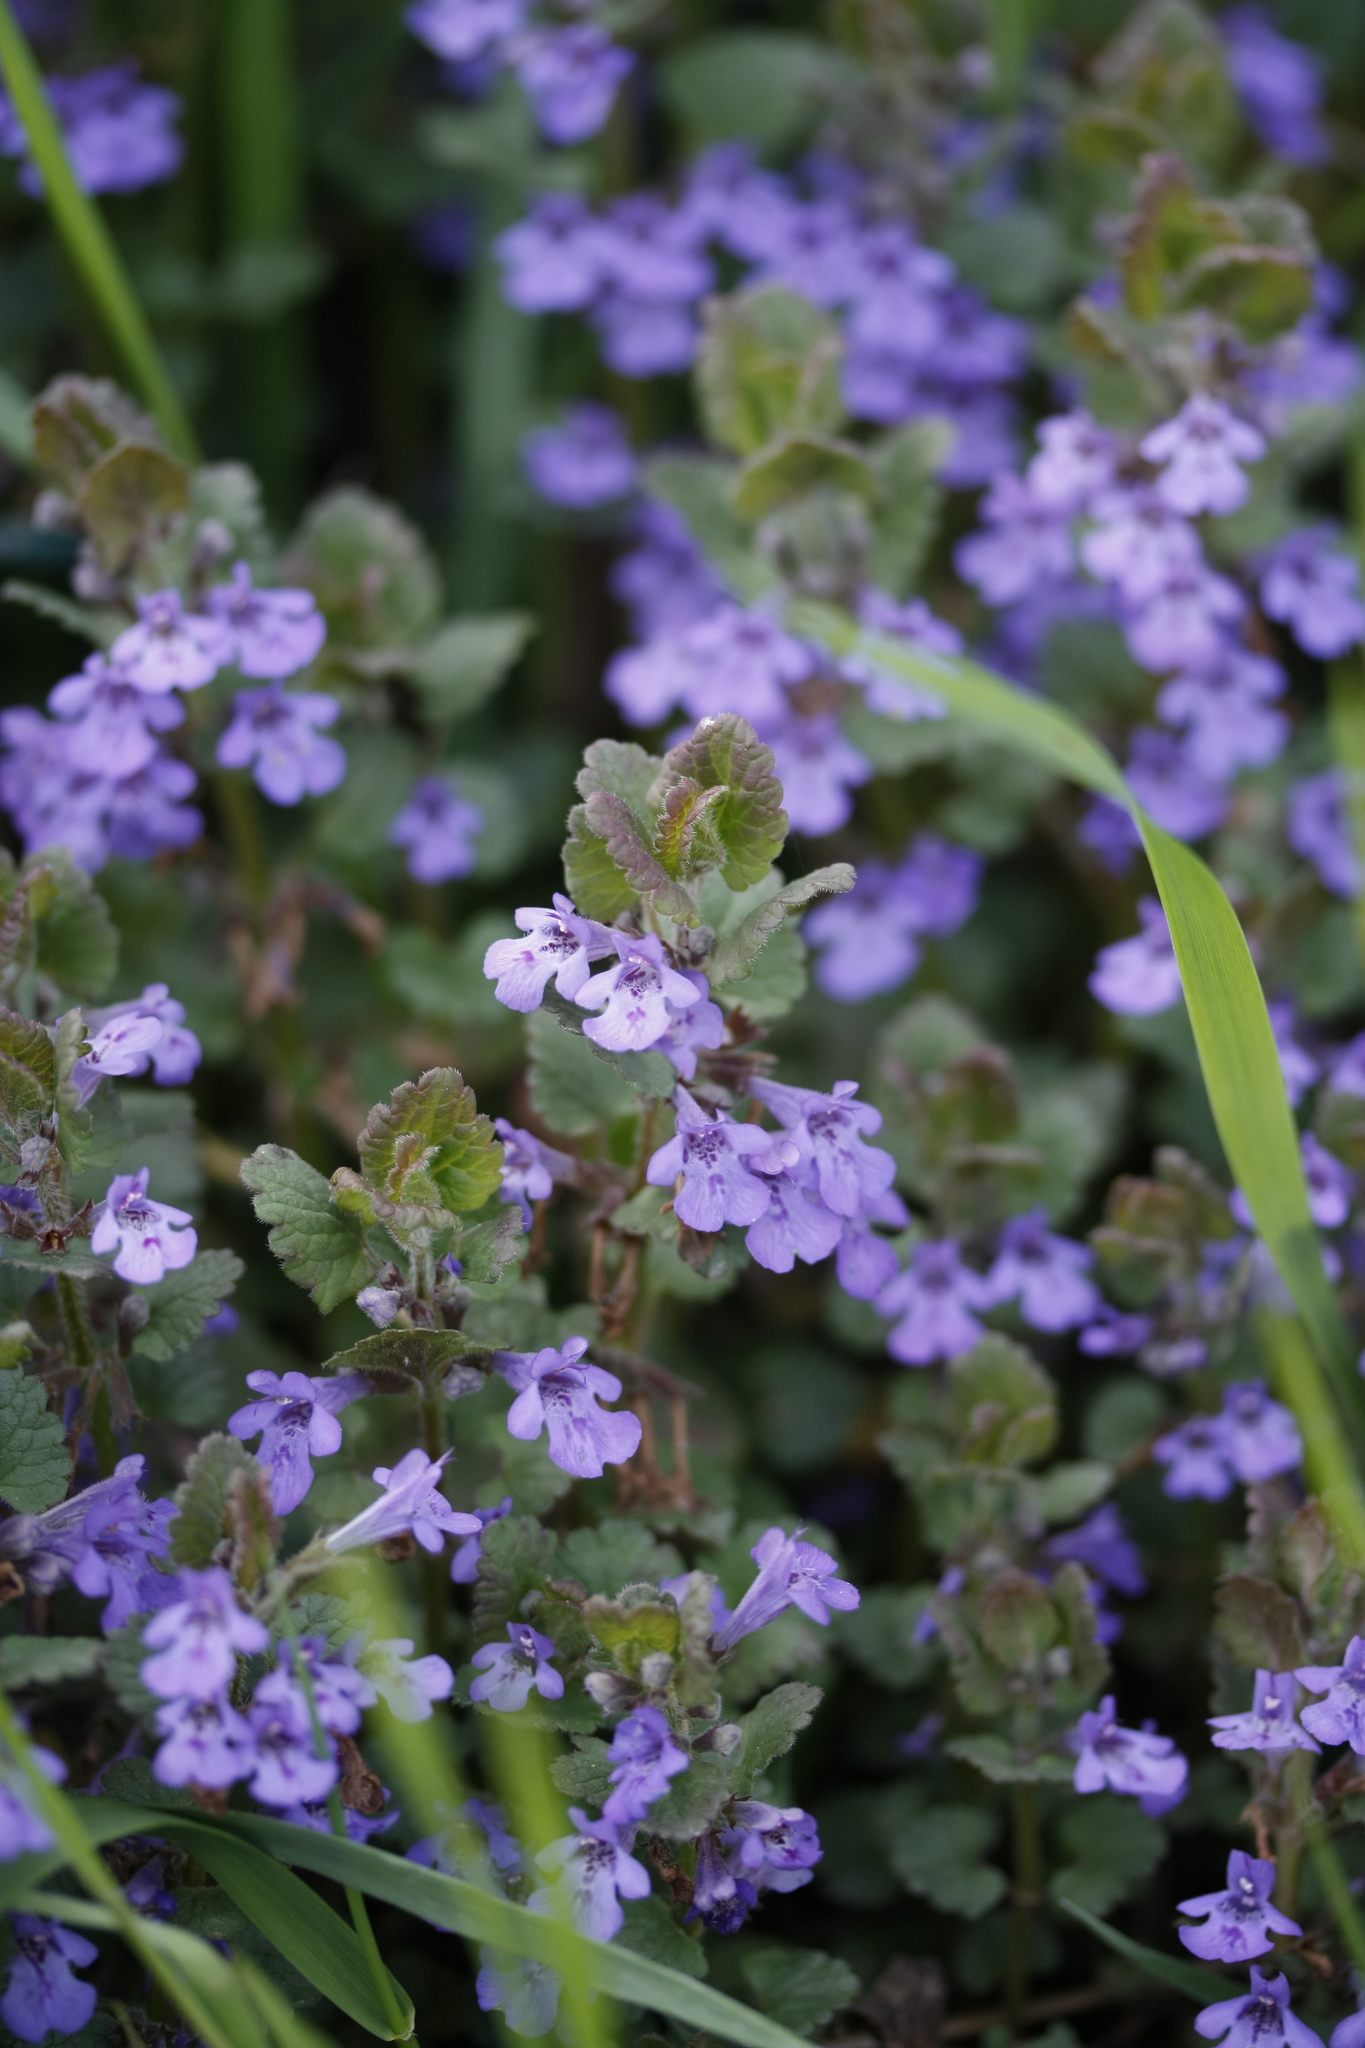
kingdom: Plantae
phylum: Tracheophyta
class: Magnoliopsida
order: Lamiales
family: Lamiaceae
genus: Glechoma
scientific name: Glechoma hederacea
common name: Ground ivy
